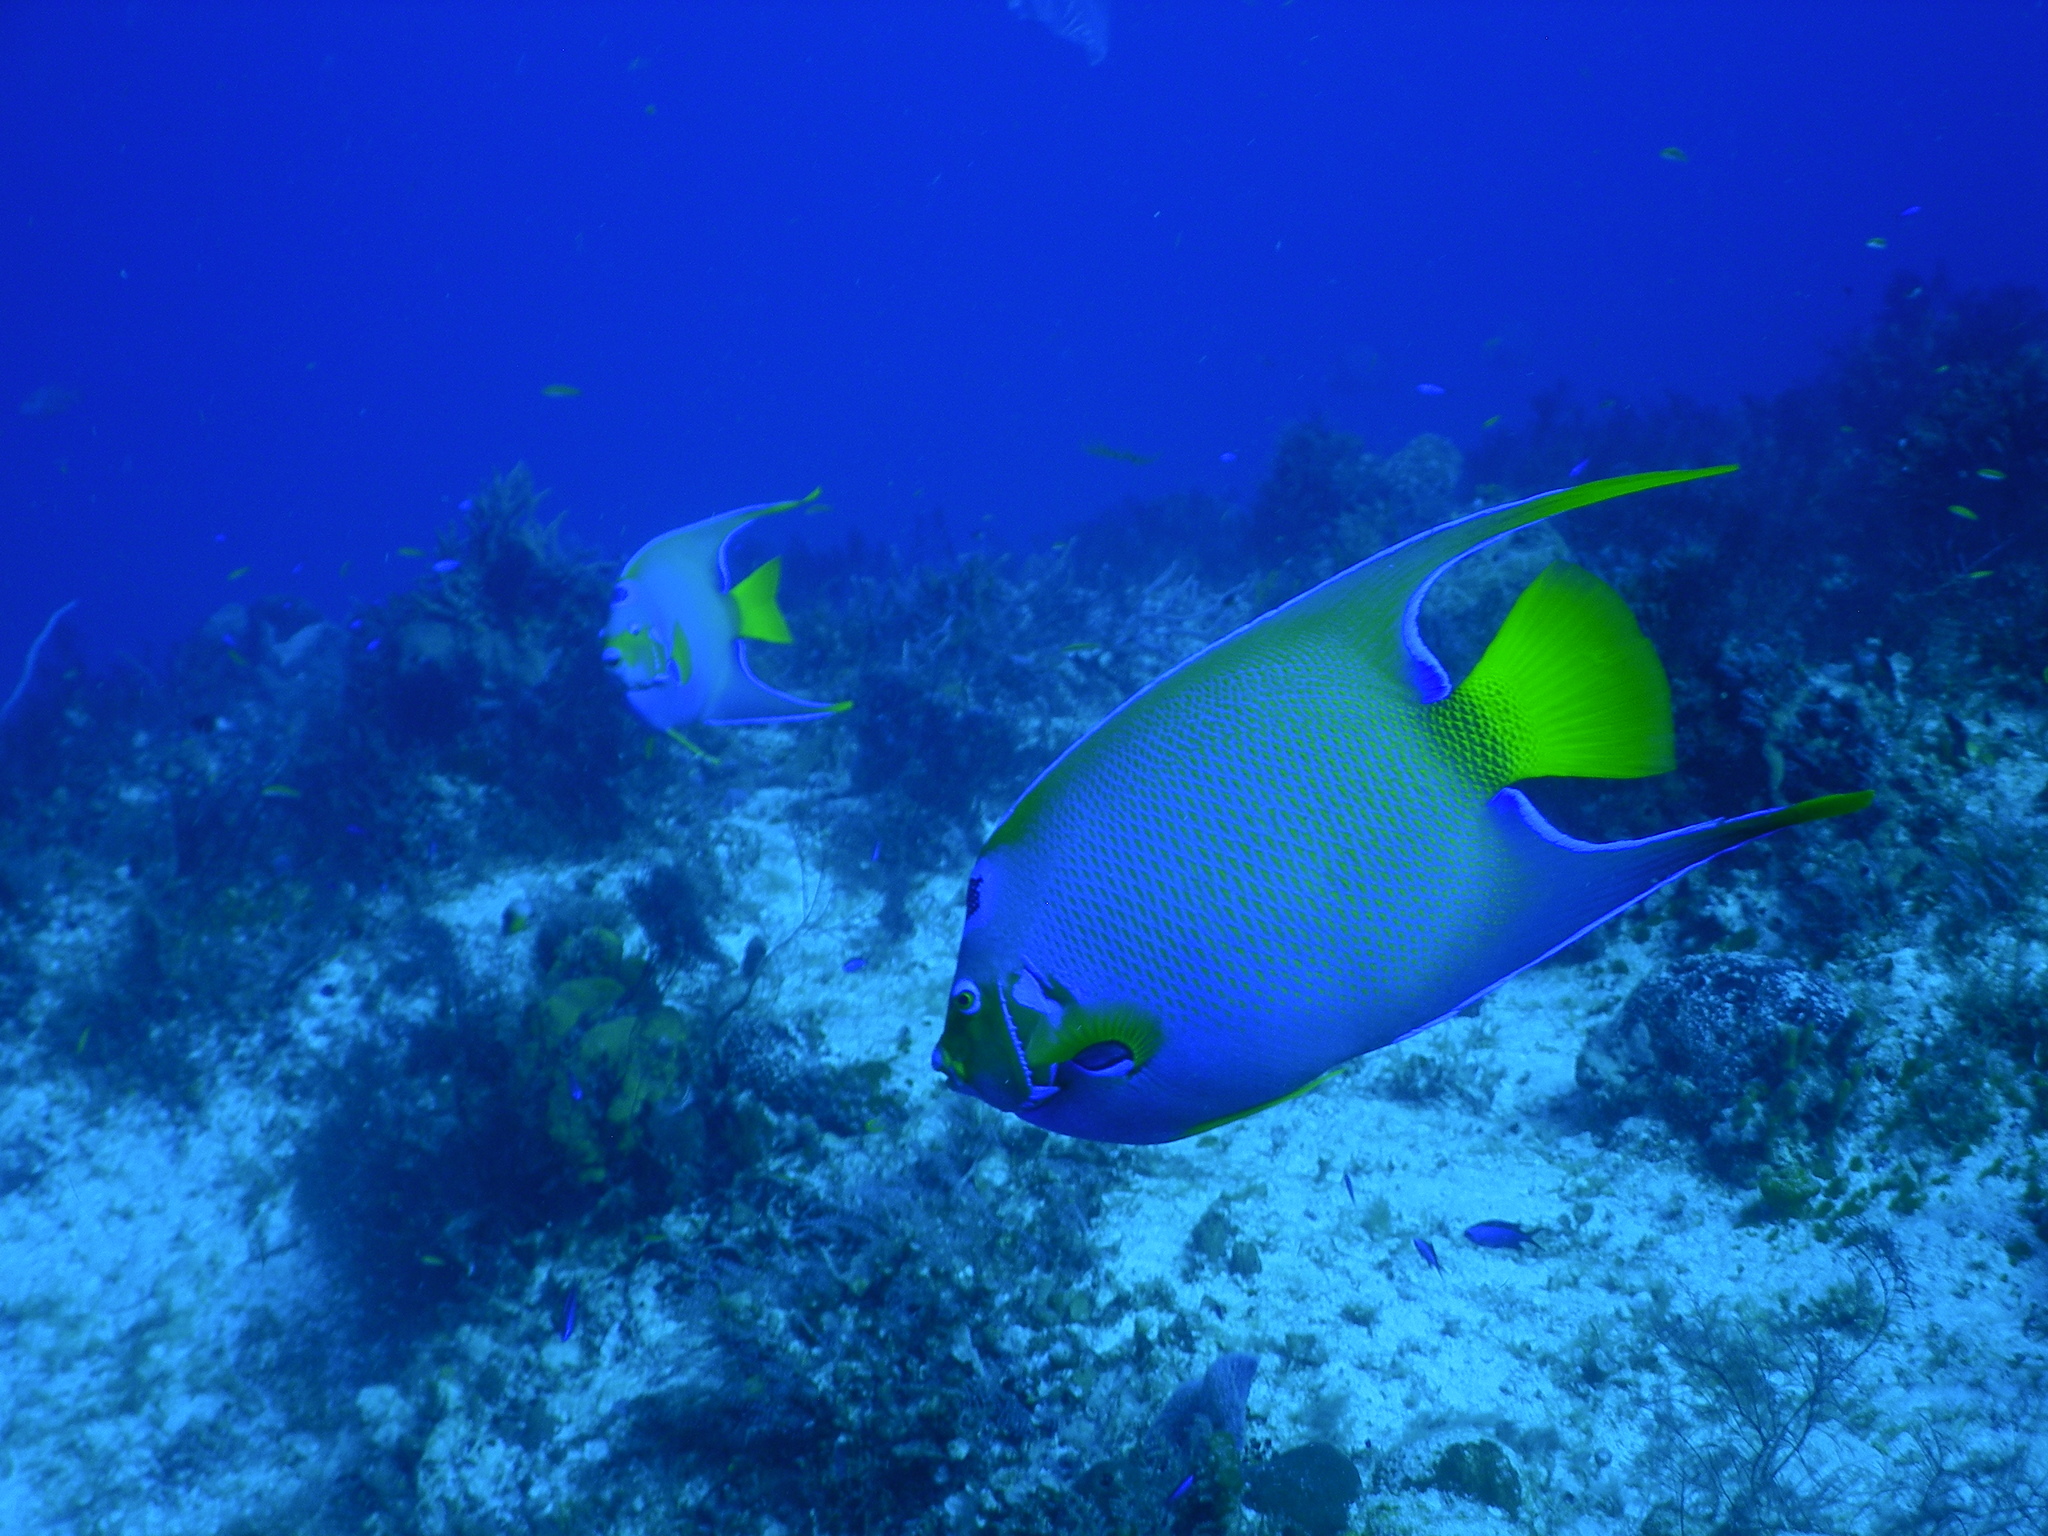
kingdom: Animalia
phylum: Chordata
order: Perciformes
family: Pomacanthidae
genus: Holacanthus
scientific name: Holacanthus ciliaris
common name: Queen angelfish
